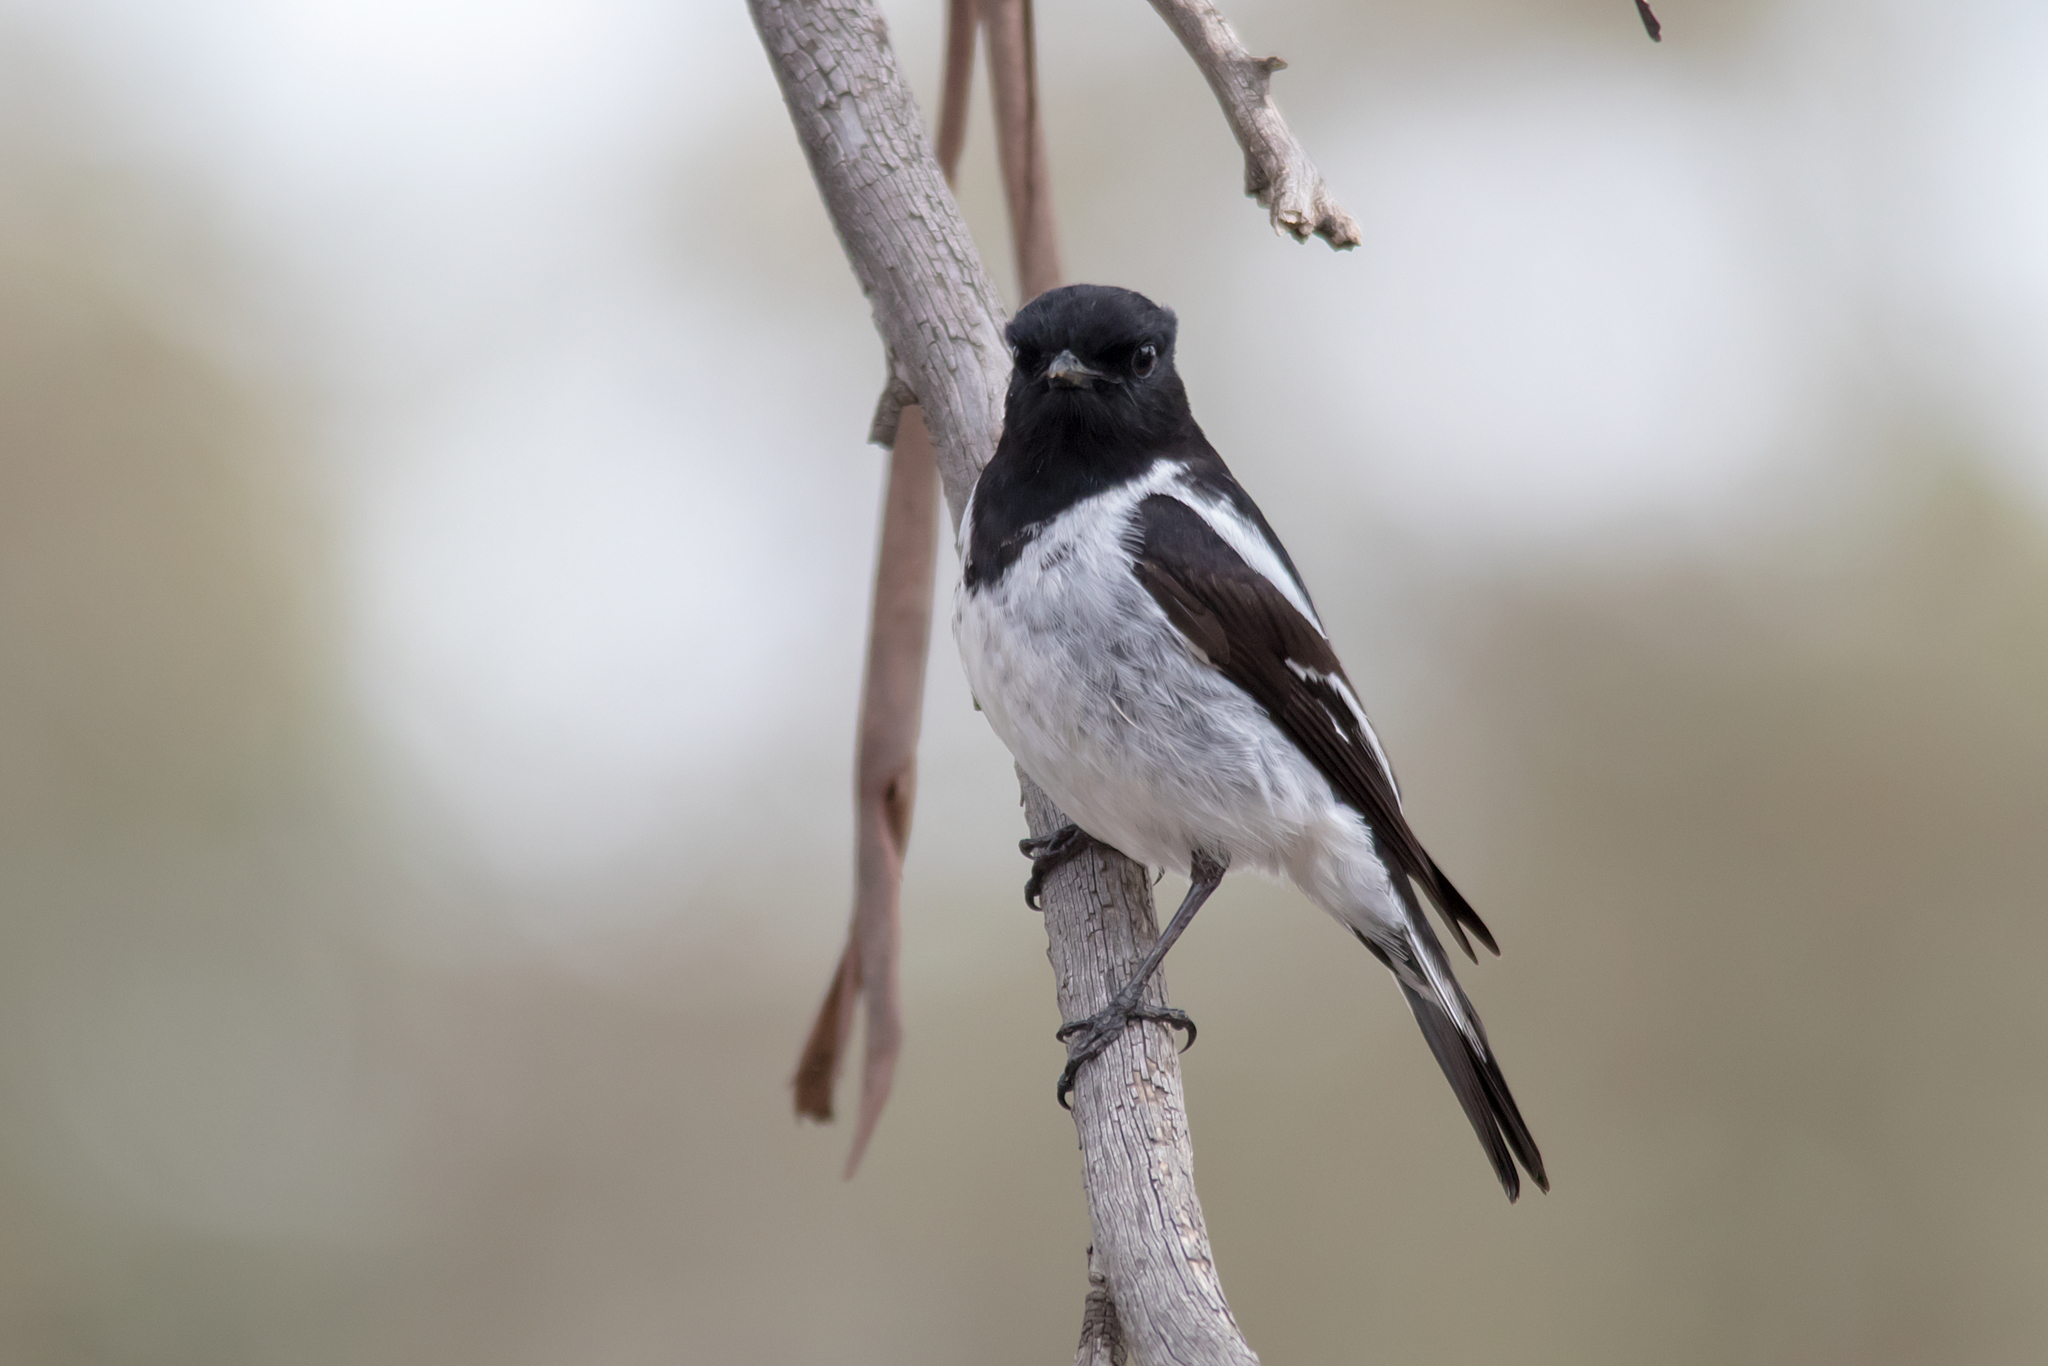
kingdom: Animalia
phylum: Chordata
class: Aves
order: Passeriformes
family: Petroicidae
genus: Melanodryas
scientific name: Melanodryas cucullata
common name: Hooded robin
